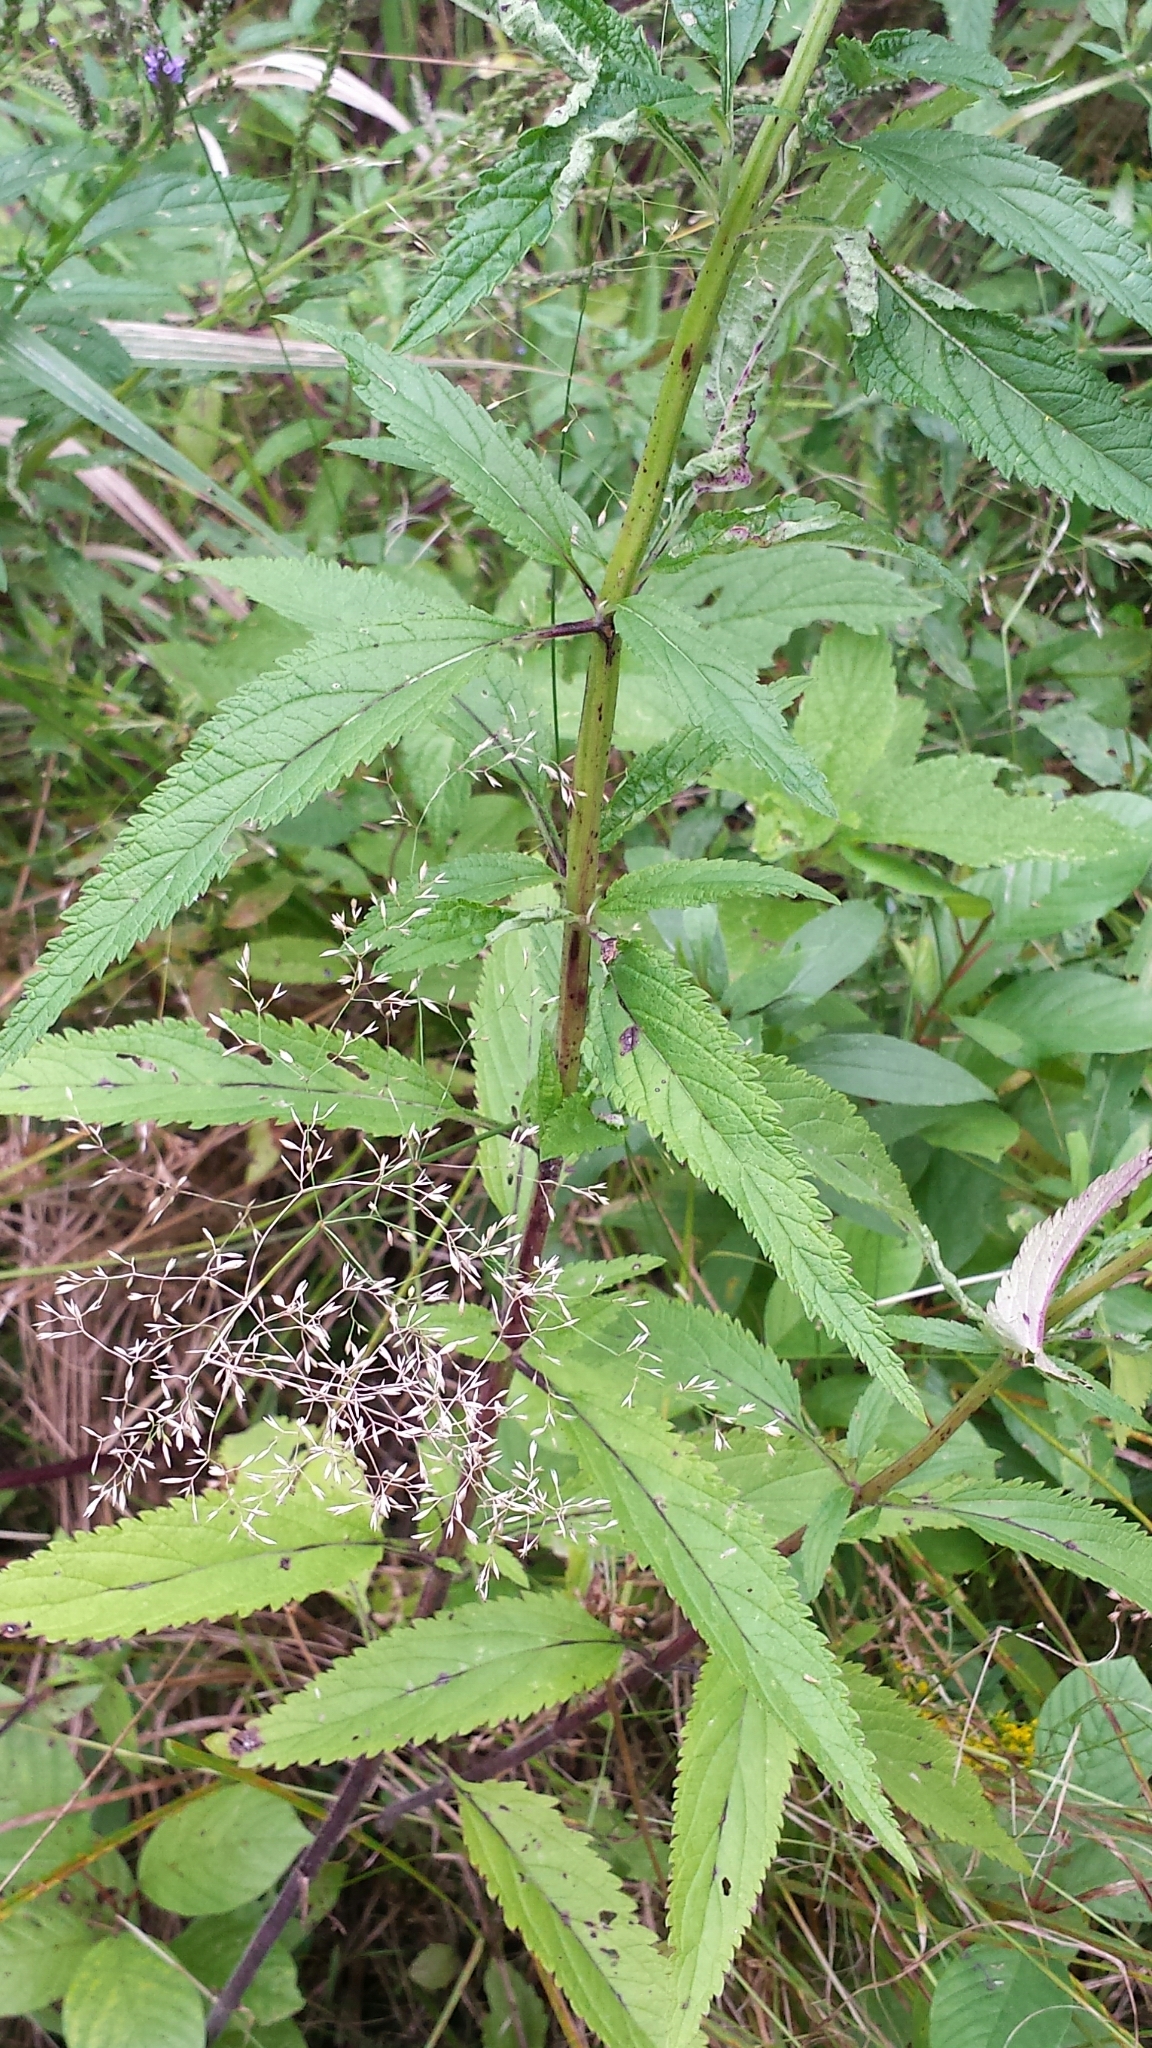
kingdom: Plantae
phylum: Tracheophyta
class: Magnoliopsida
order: Lamiales
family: Verbenaceae
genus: Verbena
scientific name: Verbena hastata
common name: American blue vervain
